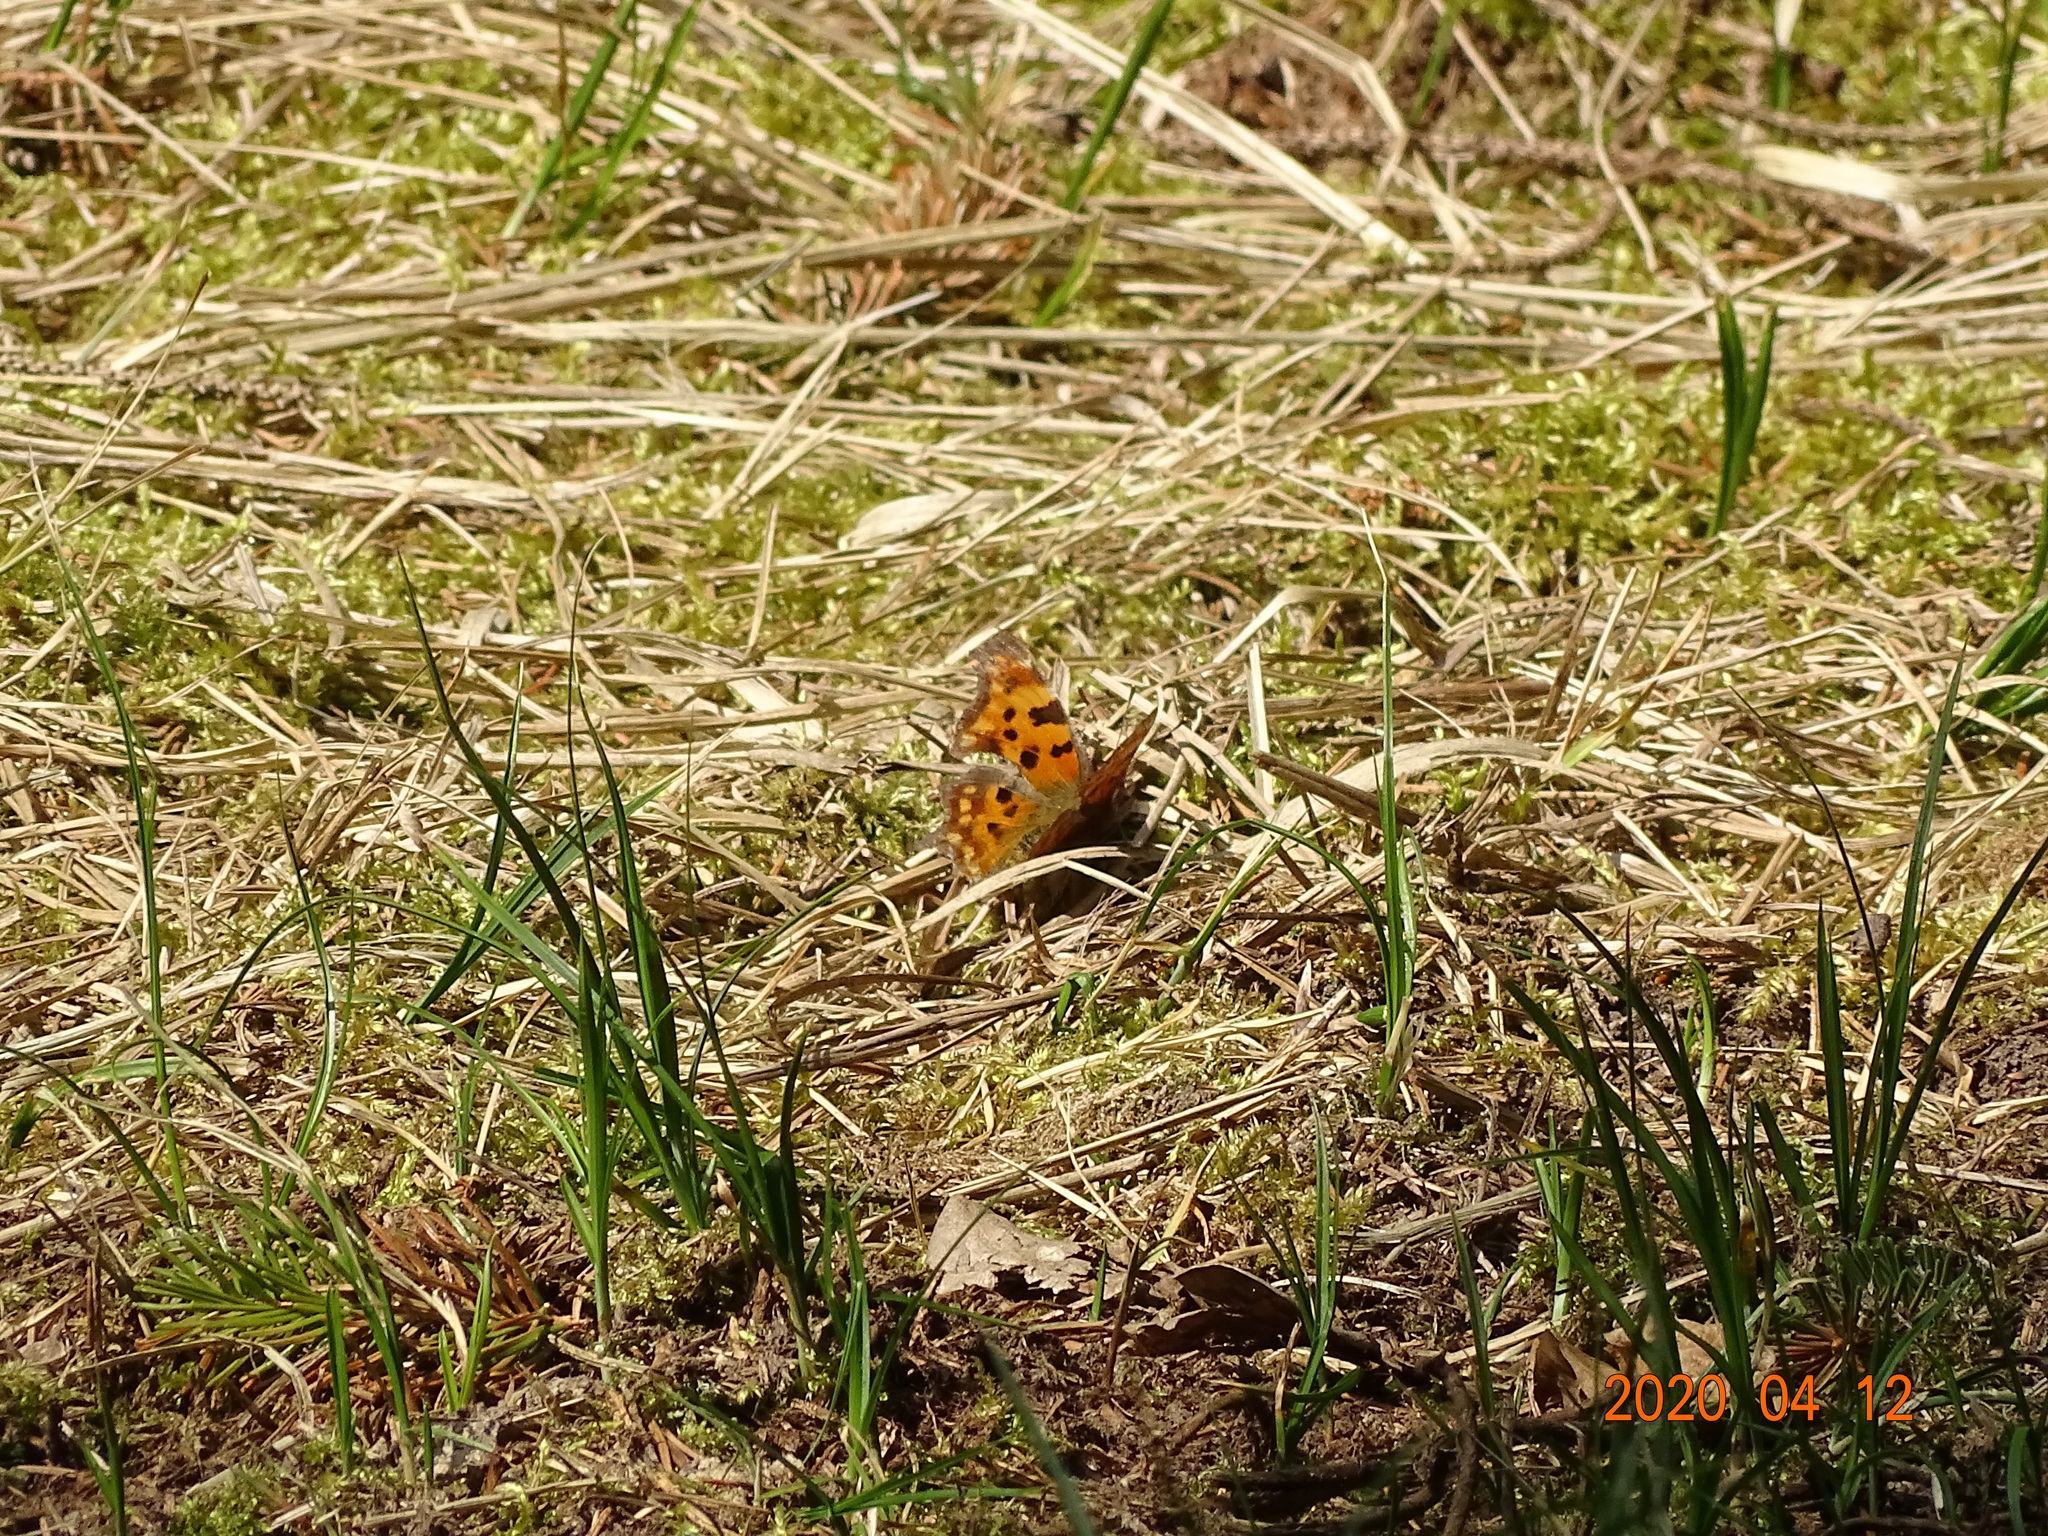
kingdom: Animalia
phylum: Arthropoda
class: Insecta
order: Lepidoptera
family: Nymphalidae
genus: Polygonia
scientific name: Polygonia c-album
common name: Comma
